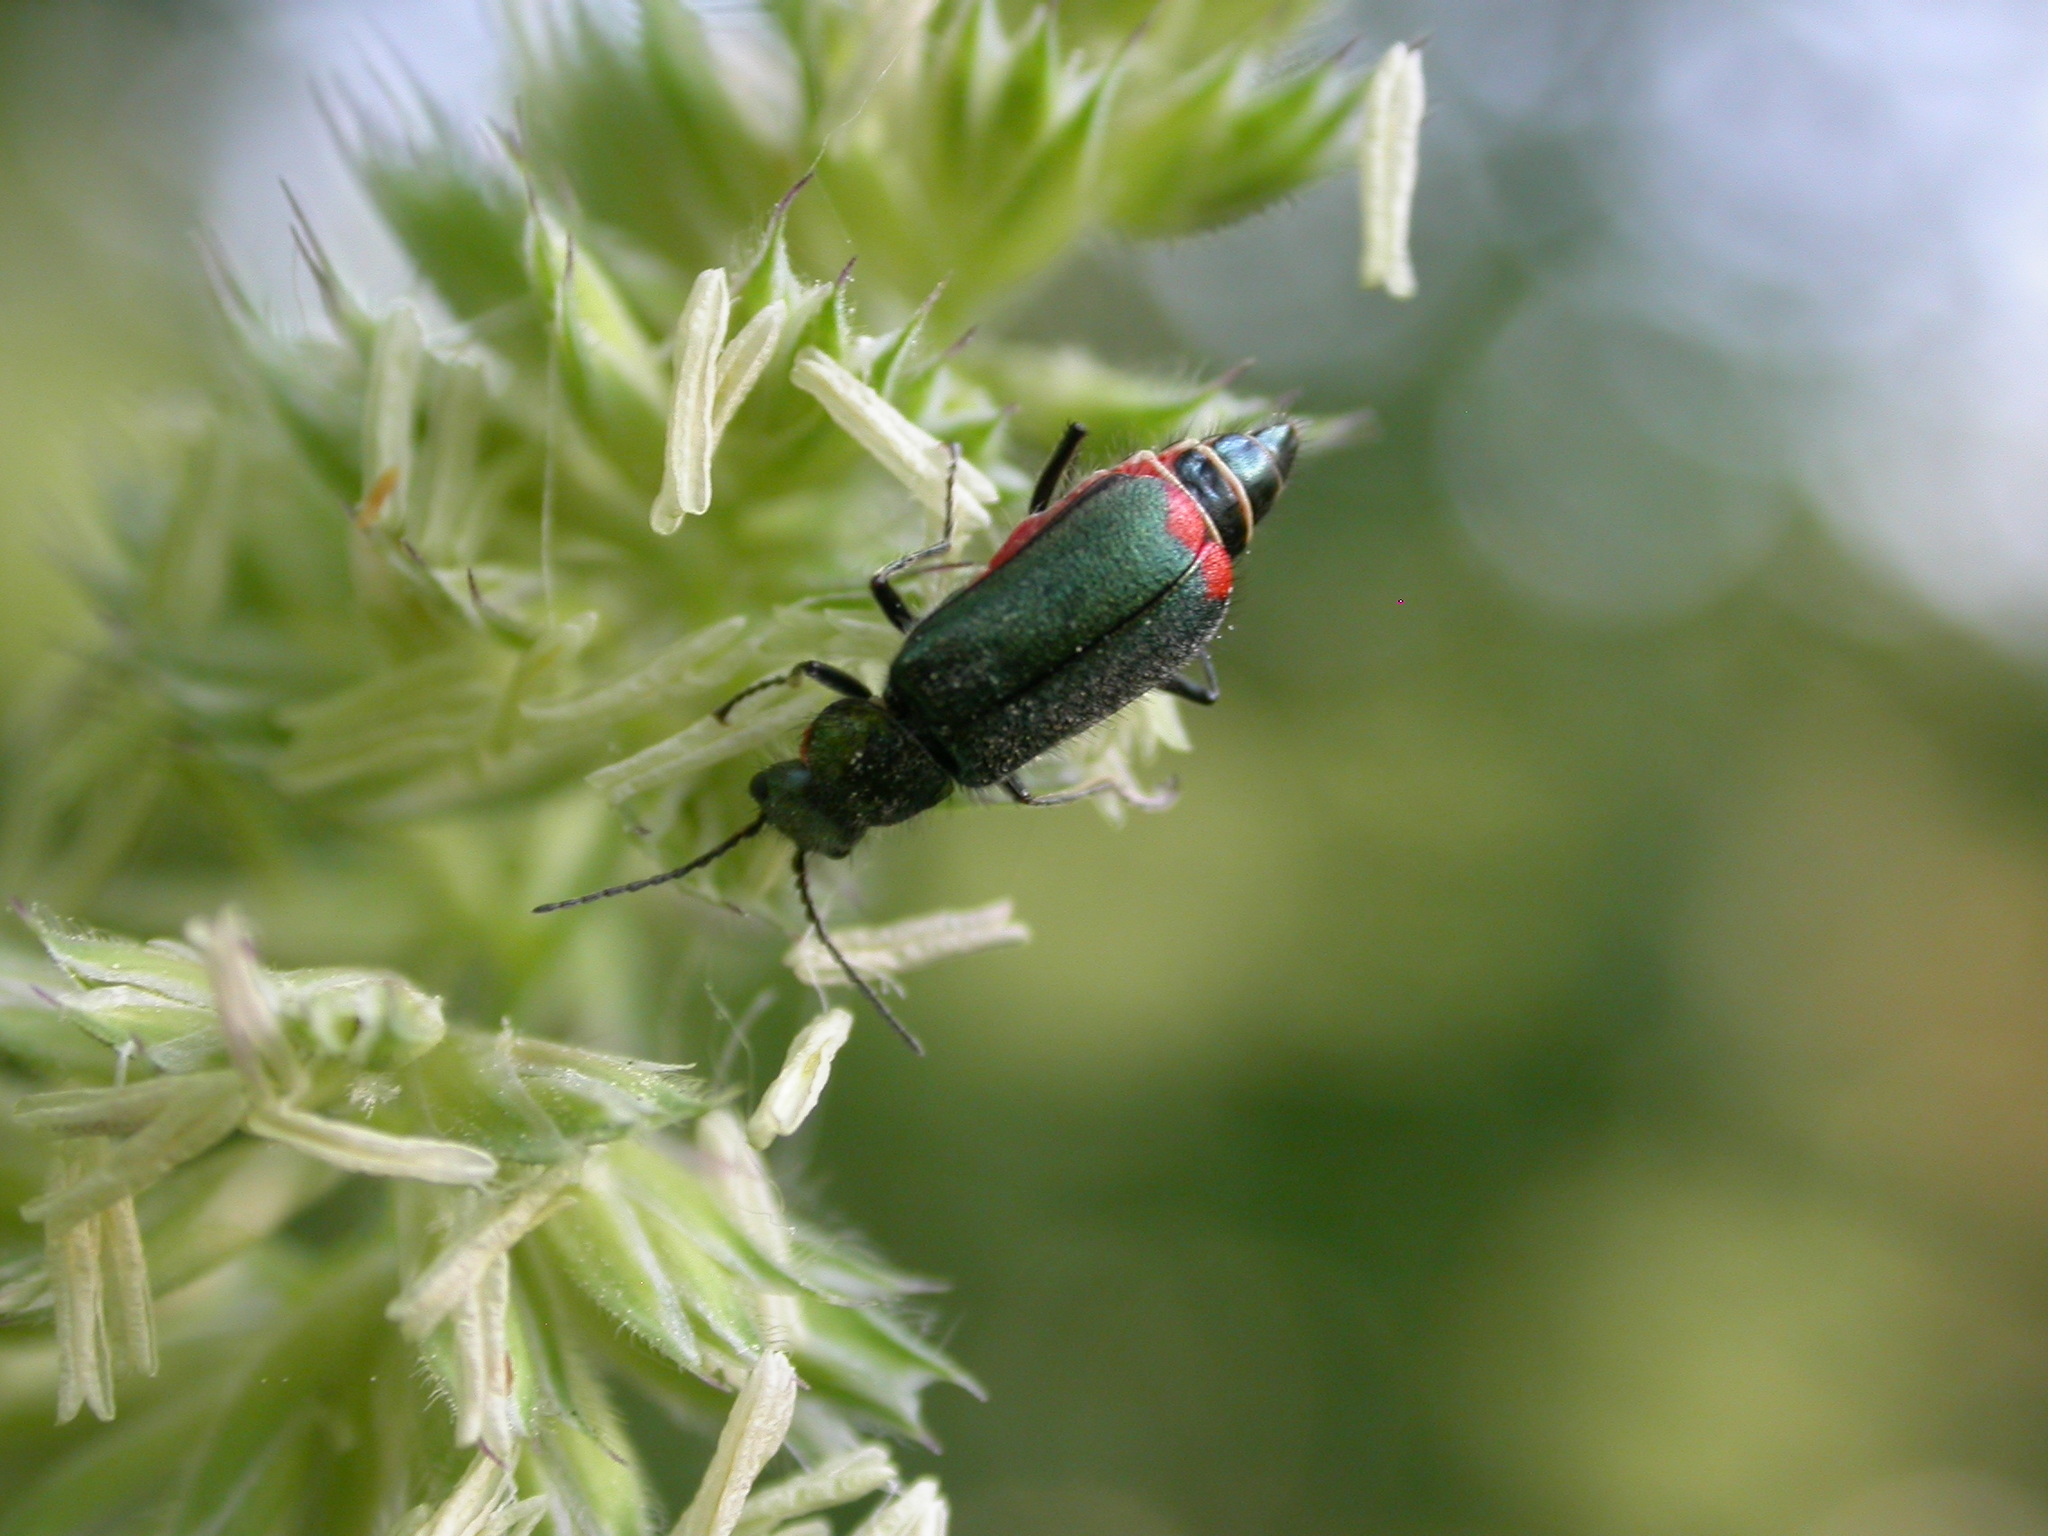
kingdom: Animalia
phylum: Arthropoda
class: Insecta
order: Coleoptera
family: Melyridae
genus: Malachius
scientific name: Malachius bipustulatus
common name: Malachite beetle
